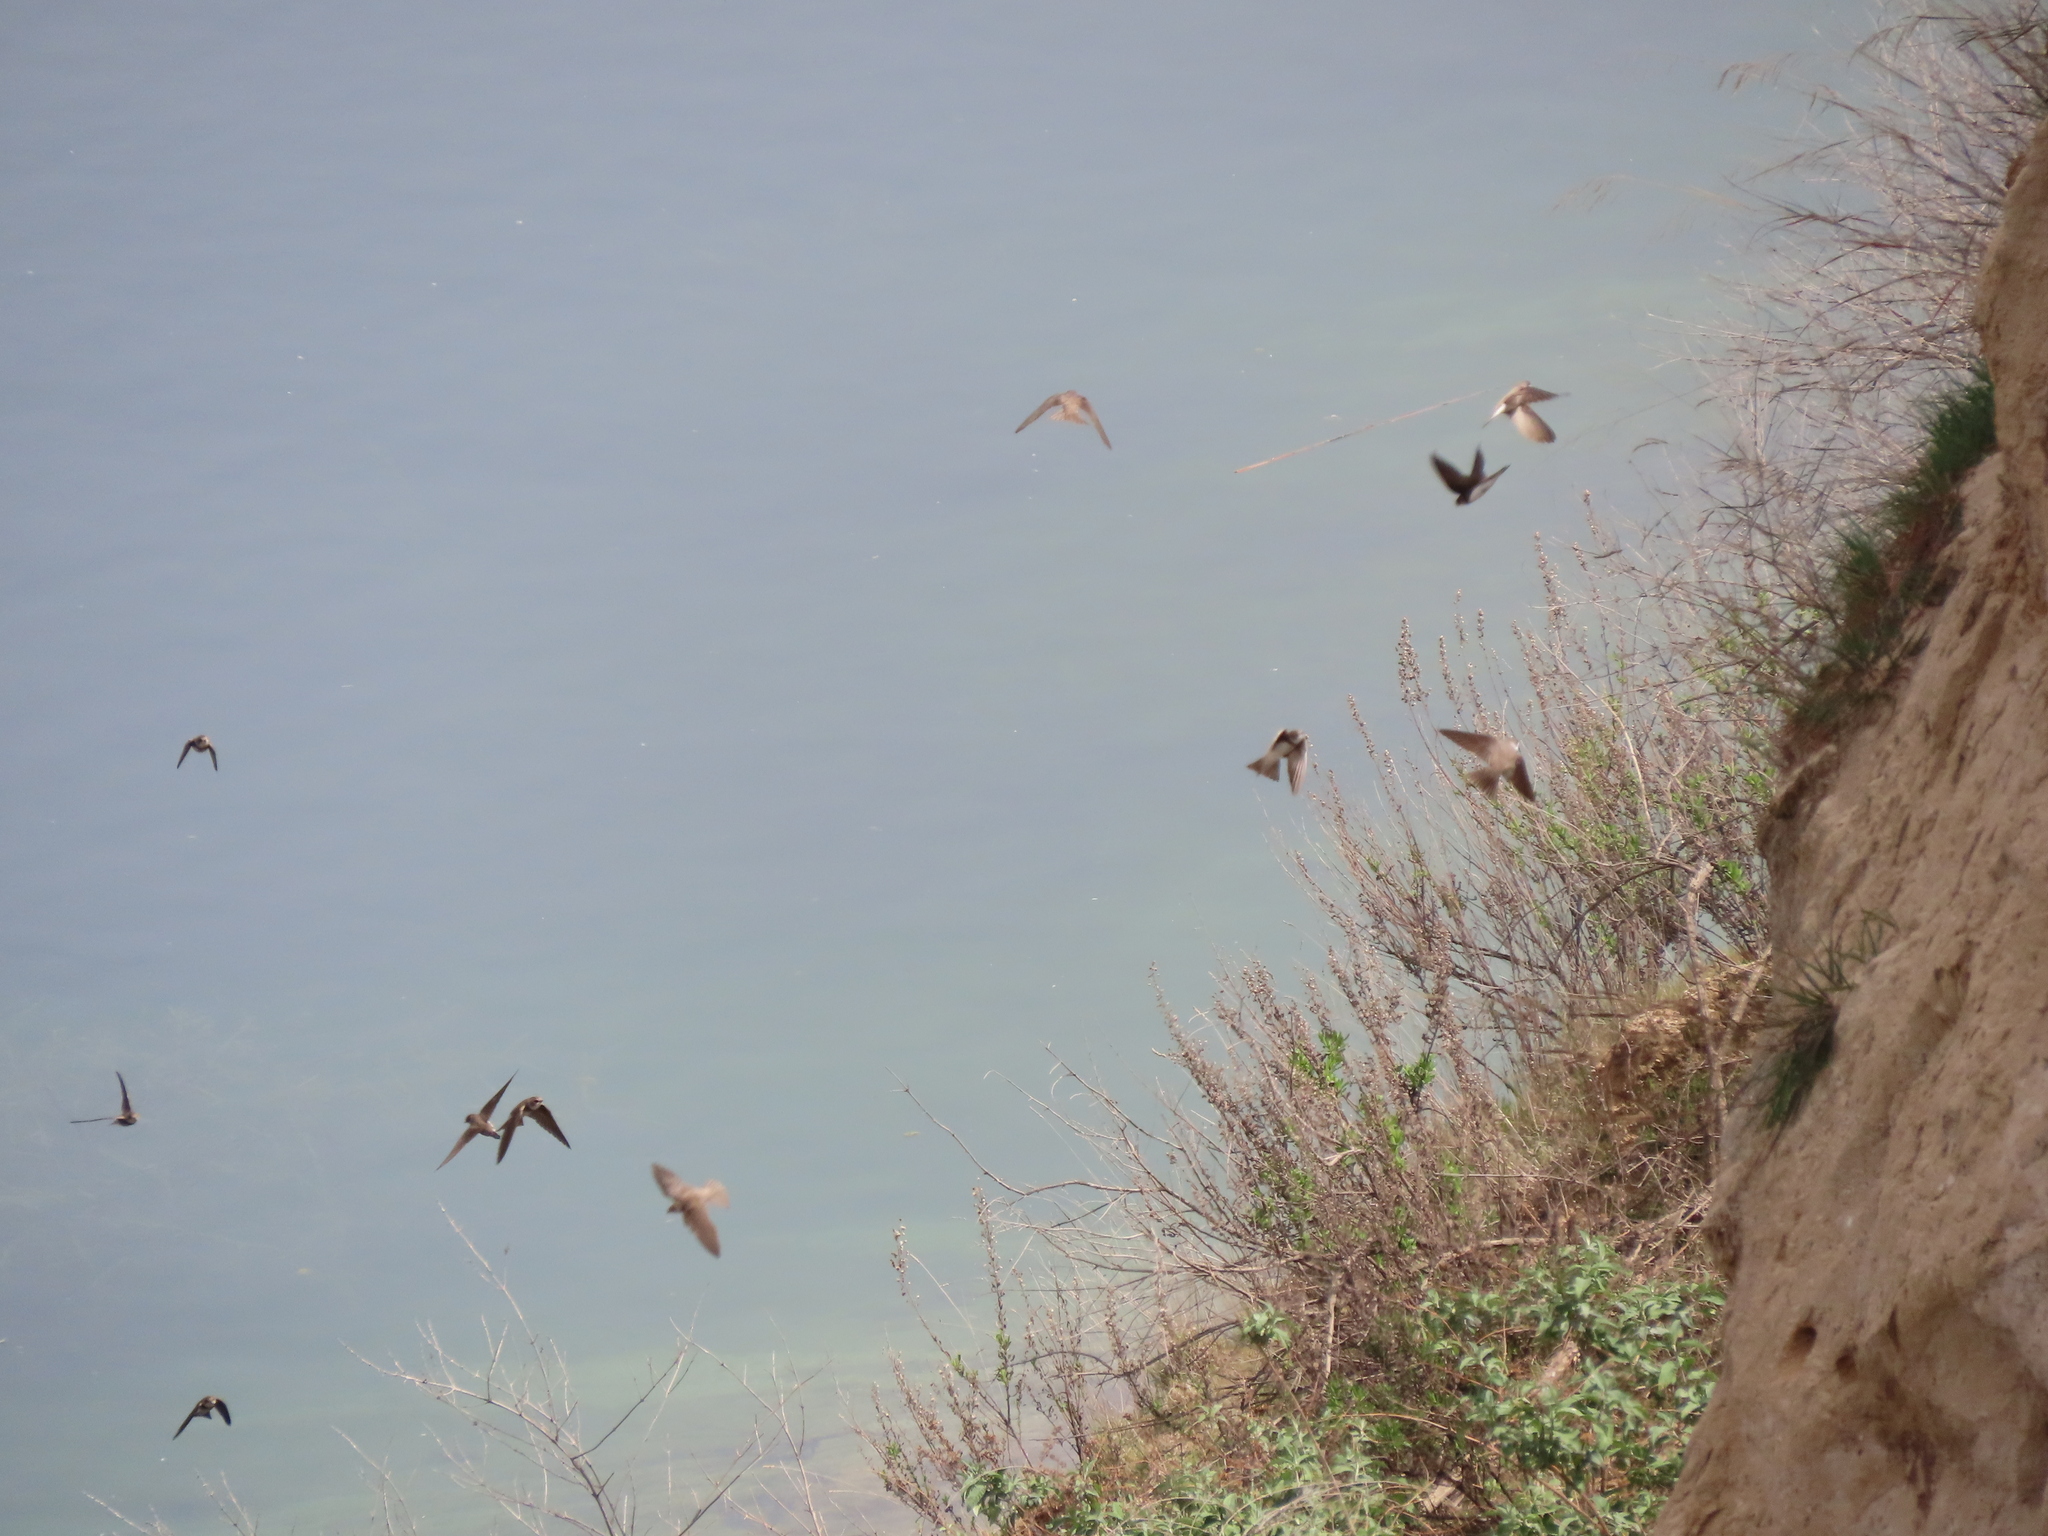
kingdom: Animalia
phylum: Chordata
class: Aves
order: Passeriformes
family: Hirundinidae
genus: Riparia
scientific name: Riparia riparia
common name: Sand martin
